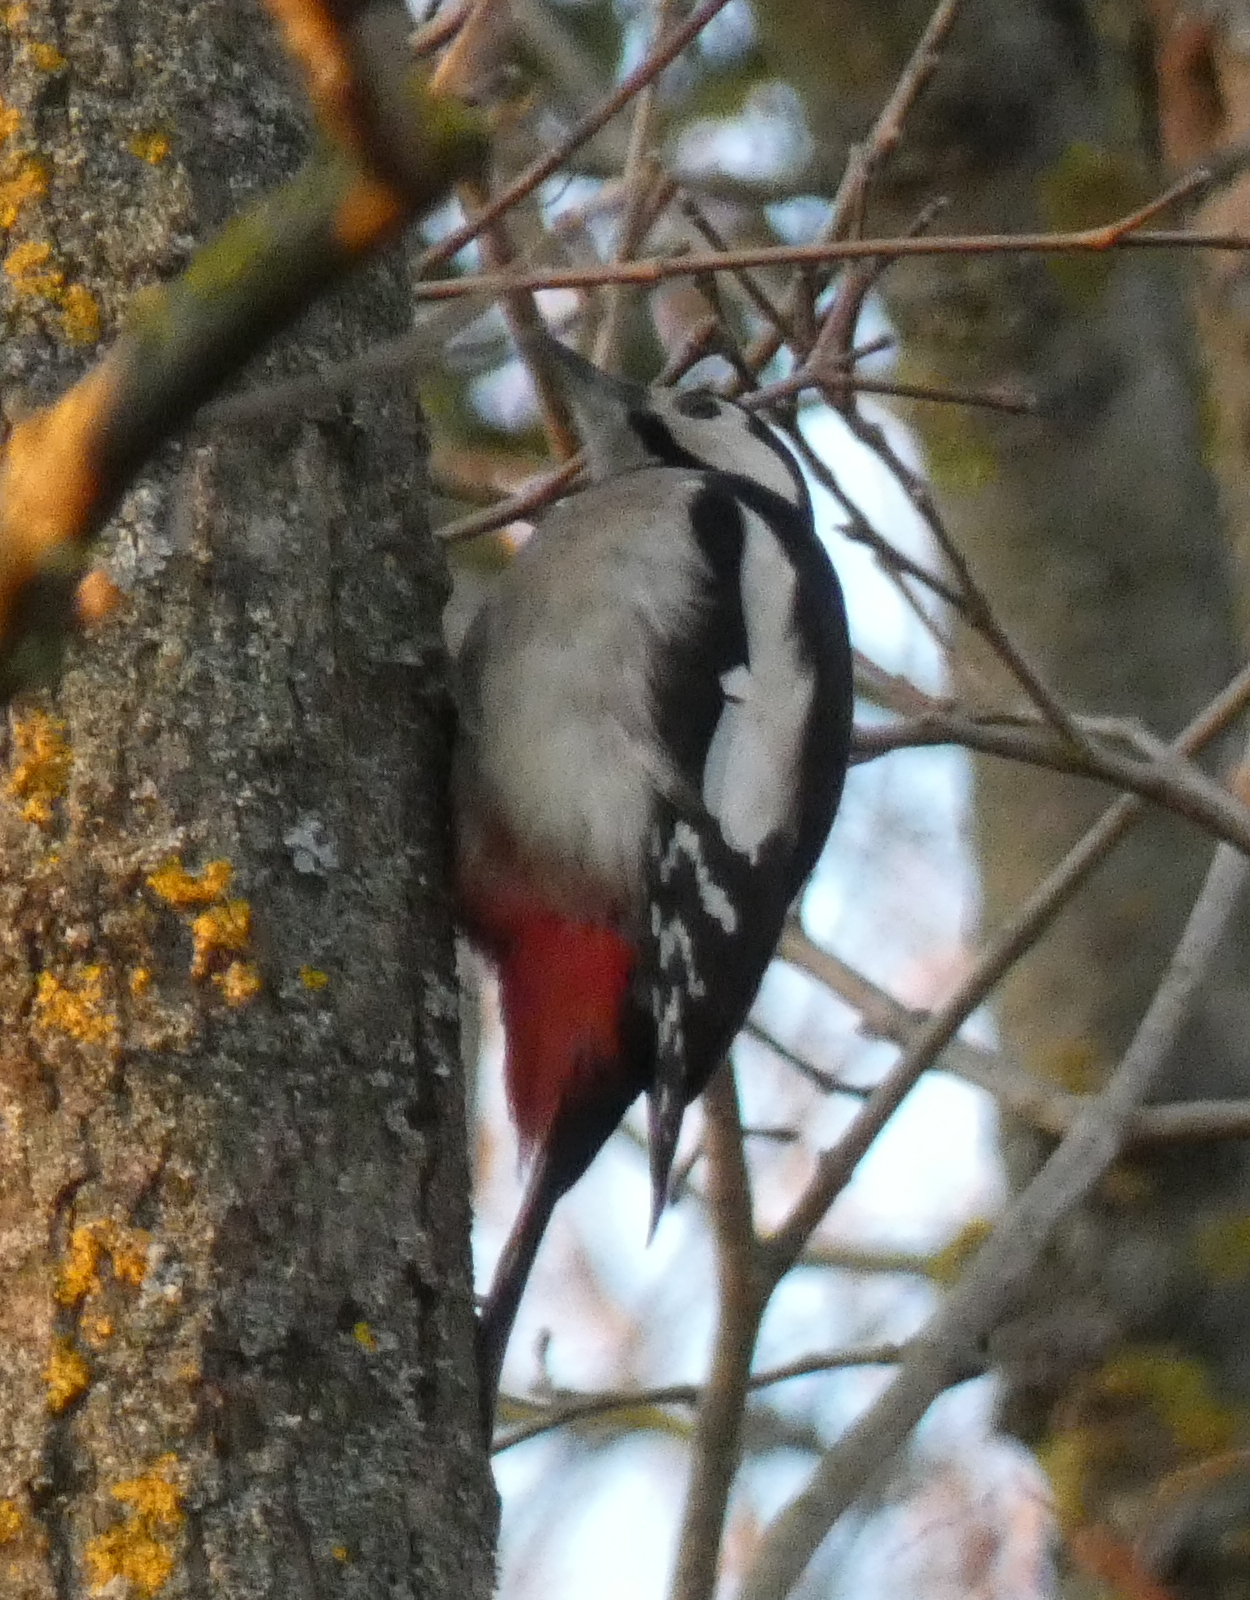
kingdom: Animalia
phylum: Chordata
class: Aves
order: Piciformes
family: Picidae
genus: Dendrocopos
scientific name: Dendrocopos major
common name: Great spotted woodpecker
